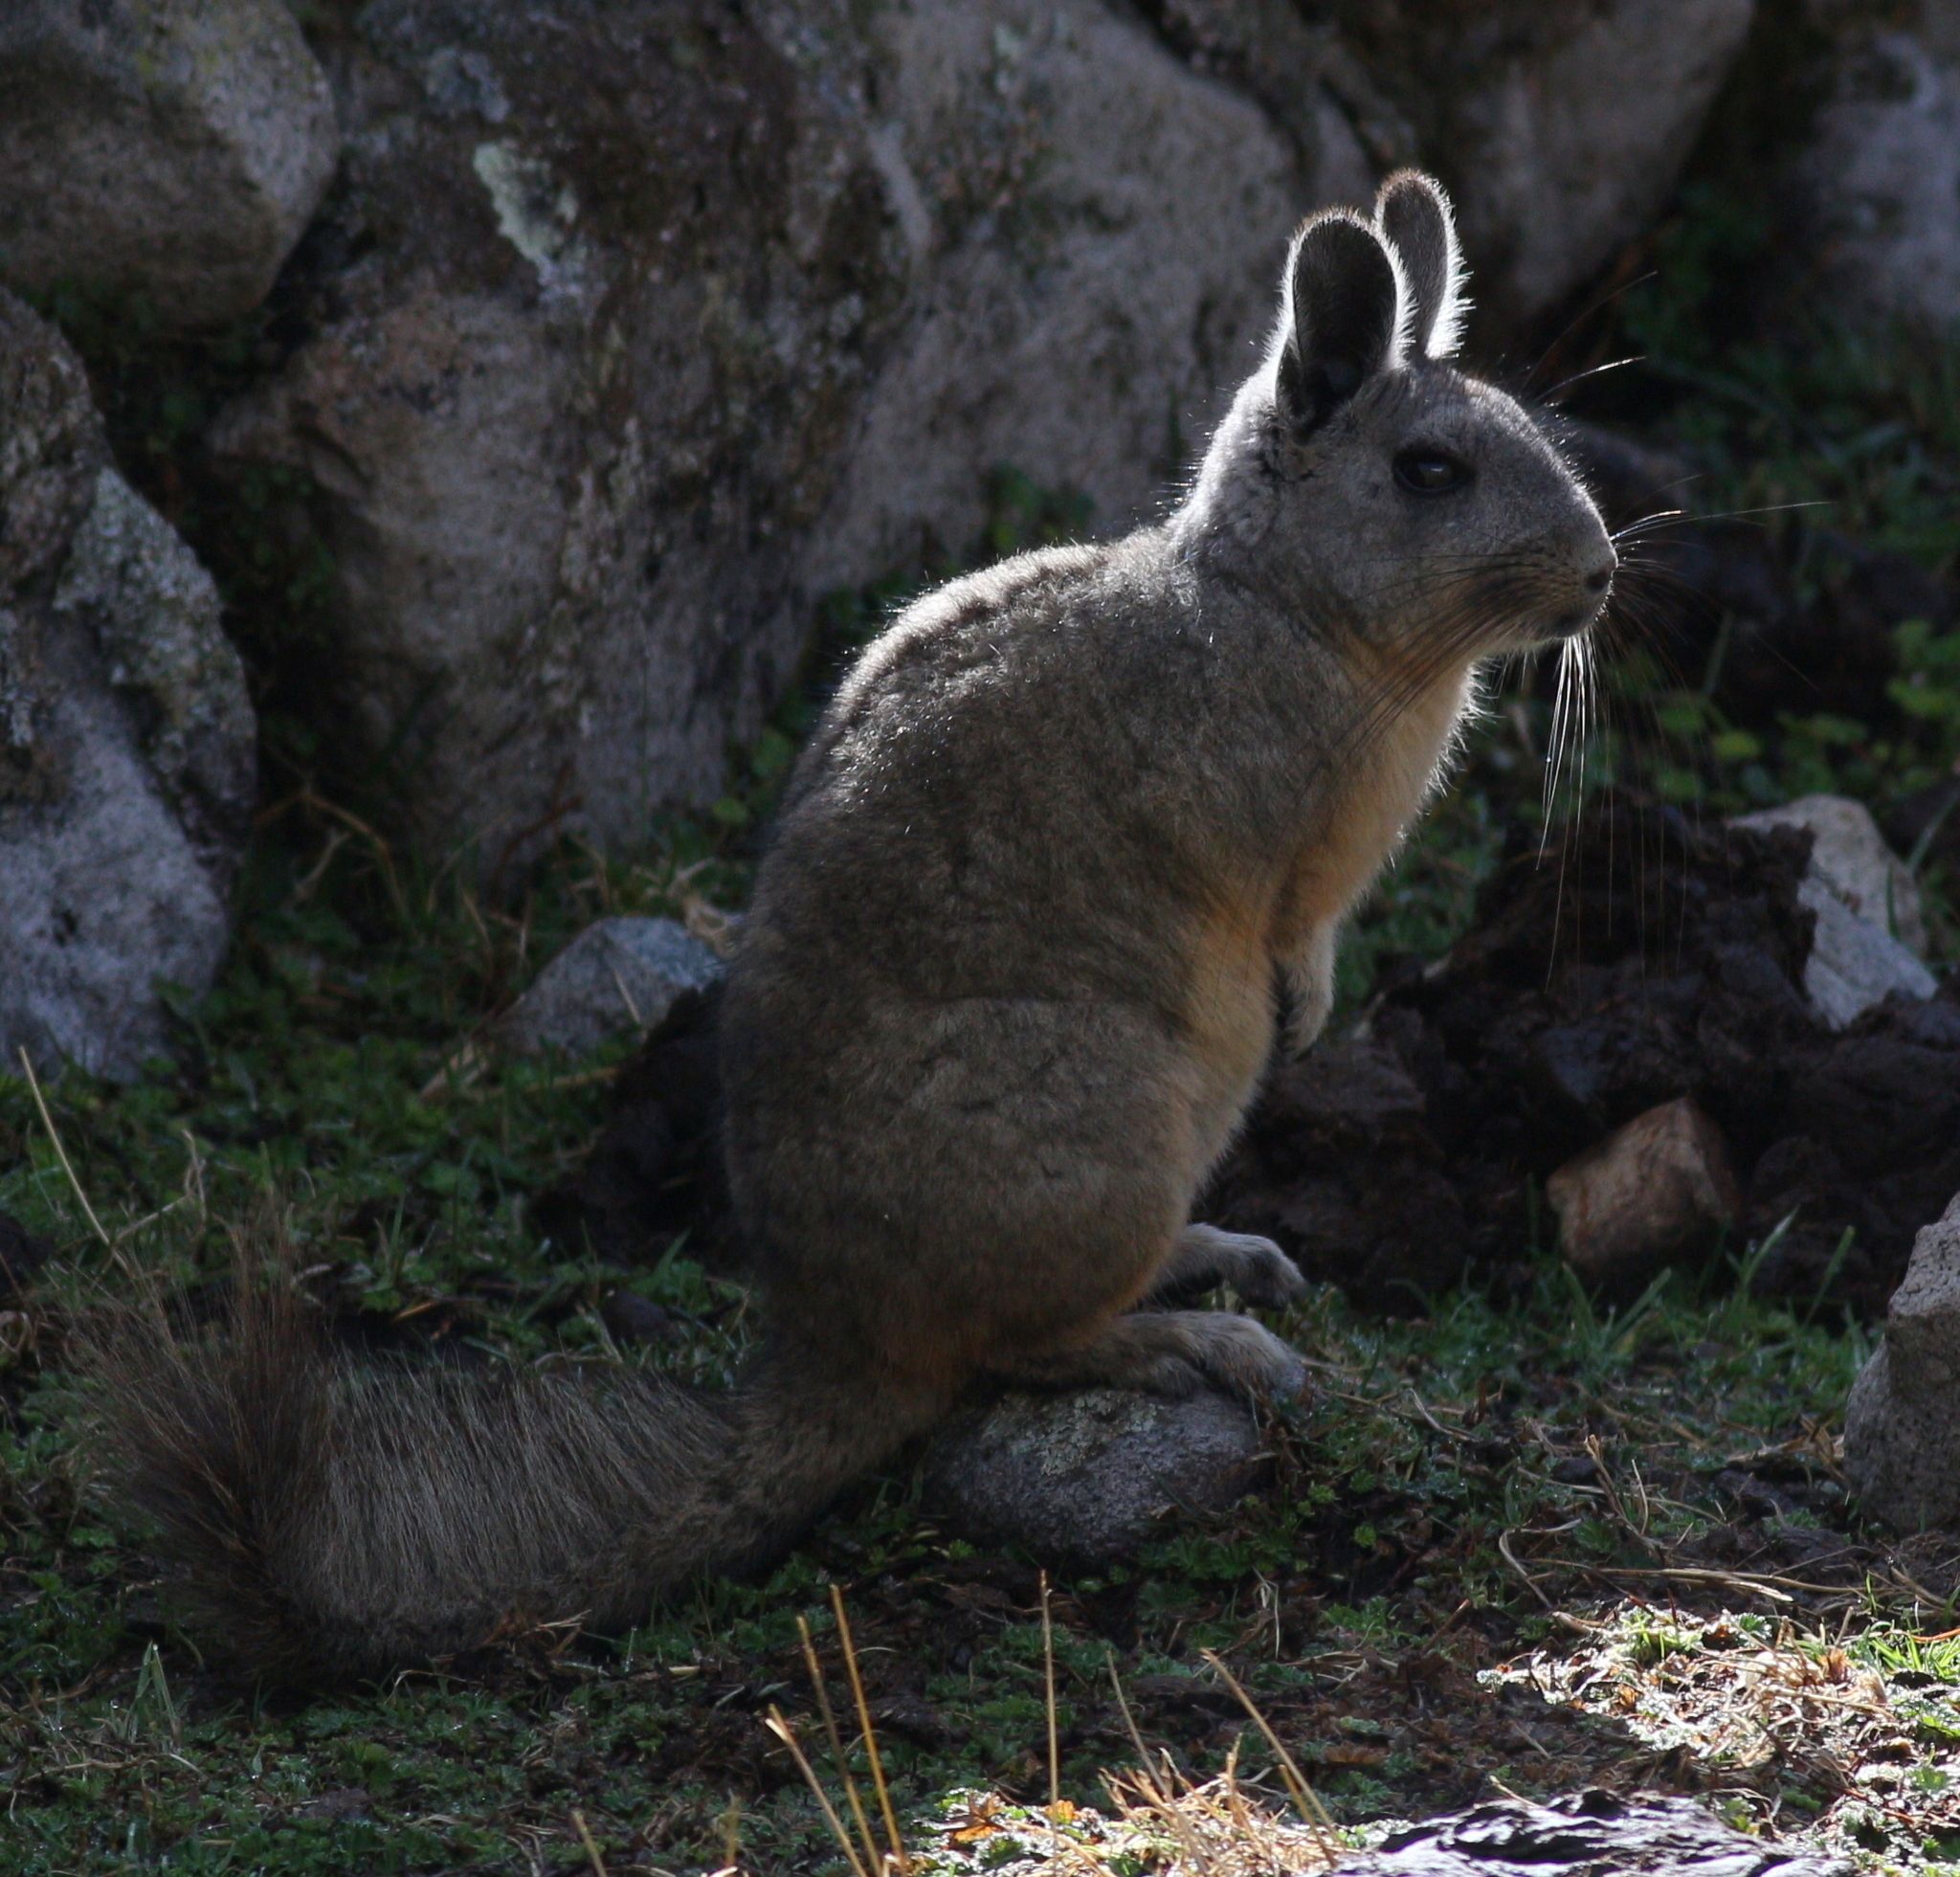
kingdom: Animalia
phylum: Chordata
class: Mammalia
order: Rodentia
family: Chinchillidae
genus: Lagidium
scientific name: Lagidium viscacia
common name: Southern viscacha
